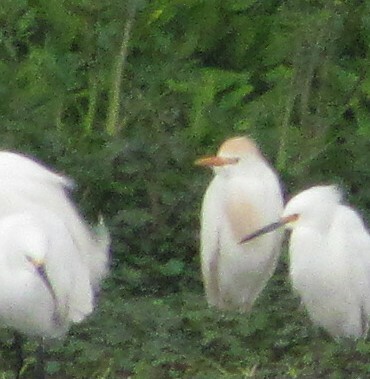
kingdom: Animalia
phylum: Chordata
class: Aves
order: Pelecaniformes
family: Ardeidae
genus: Bubulcus
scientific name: Bubulcus ibis
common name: Cattle egret
